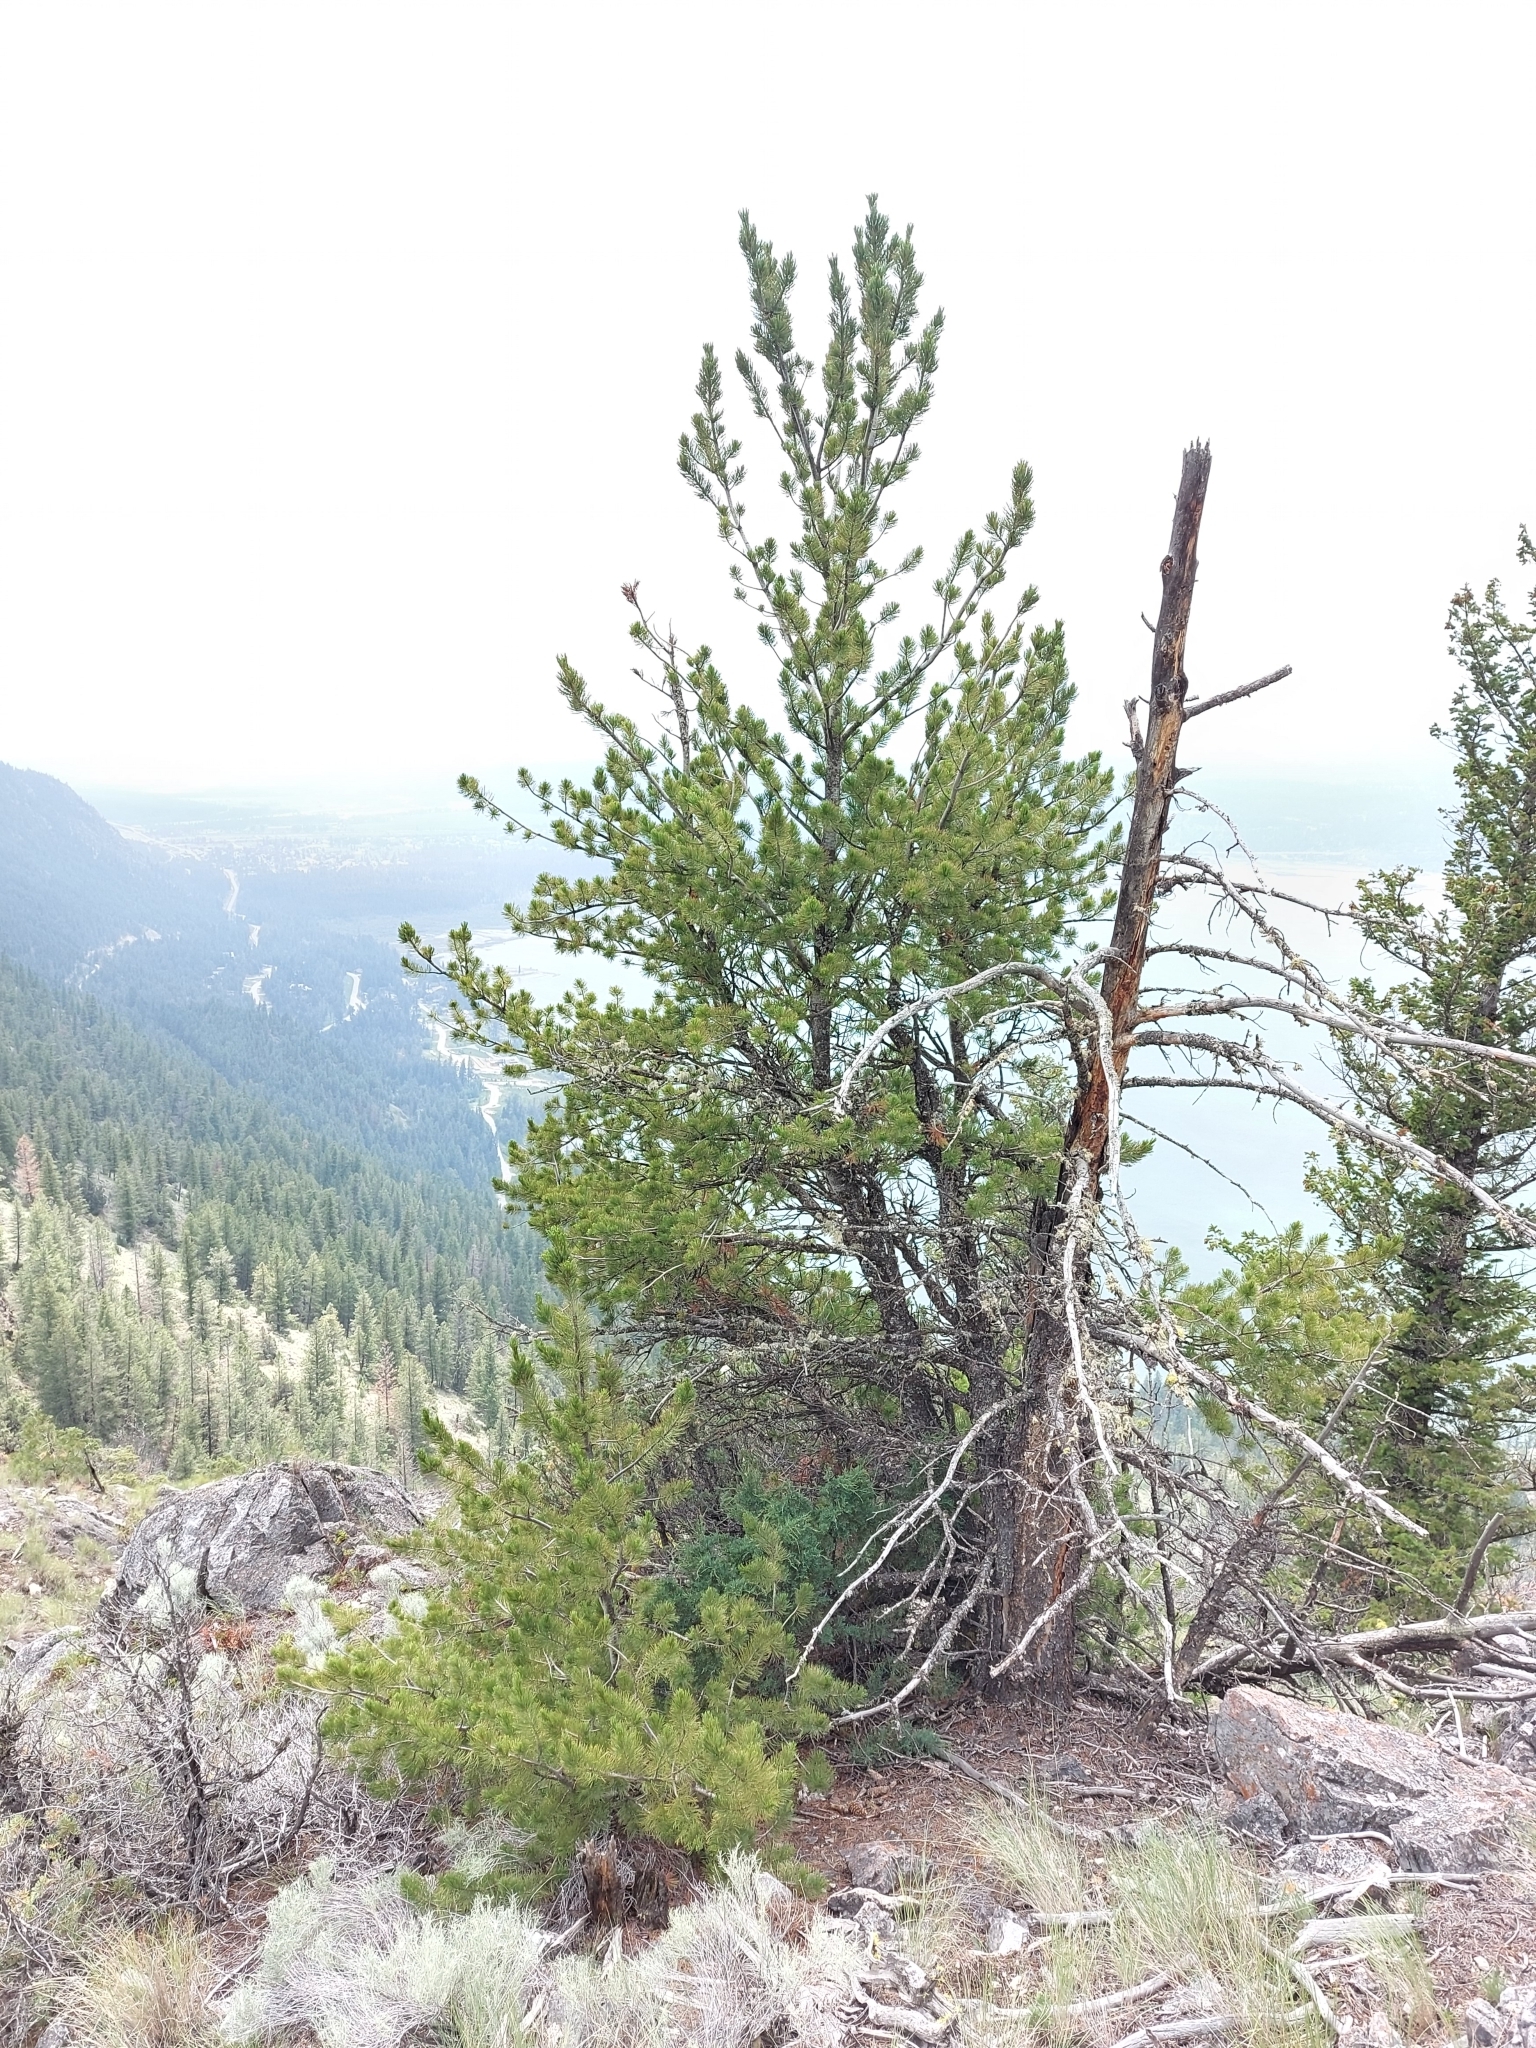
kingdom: Plantae
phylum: Tracheophyta
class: Pinopsida
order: Pinales
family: Pinaceae
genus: Pinus
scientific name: Pinus flexilis
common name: Limber pine
